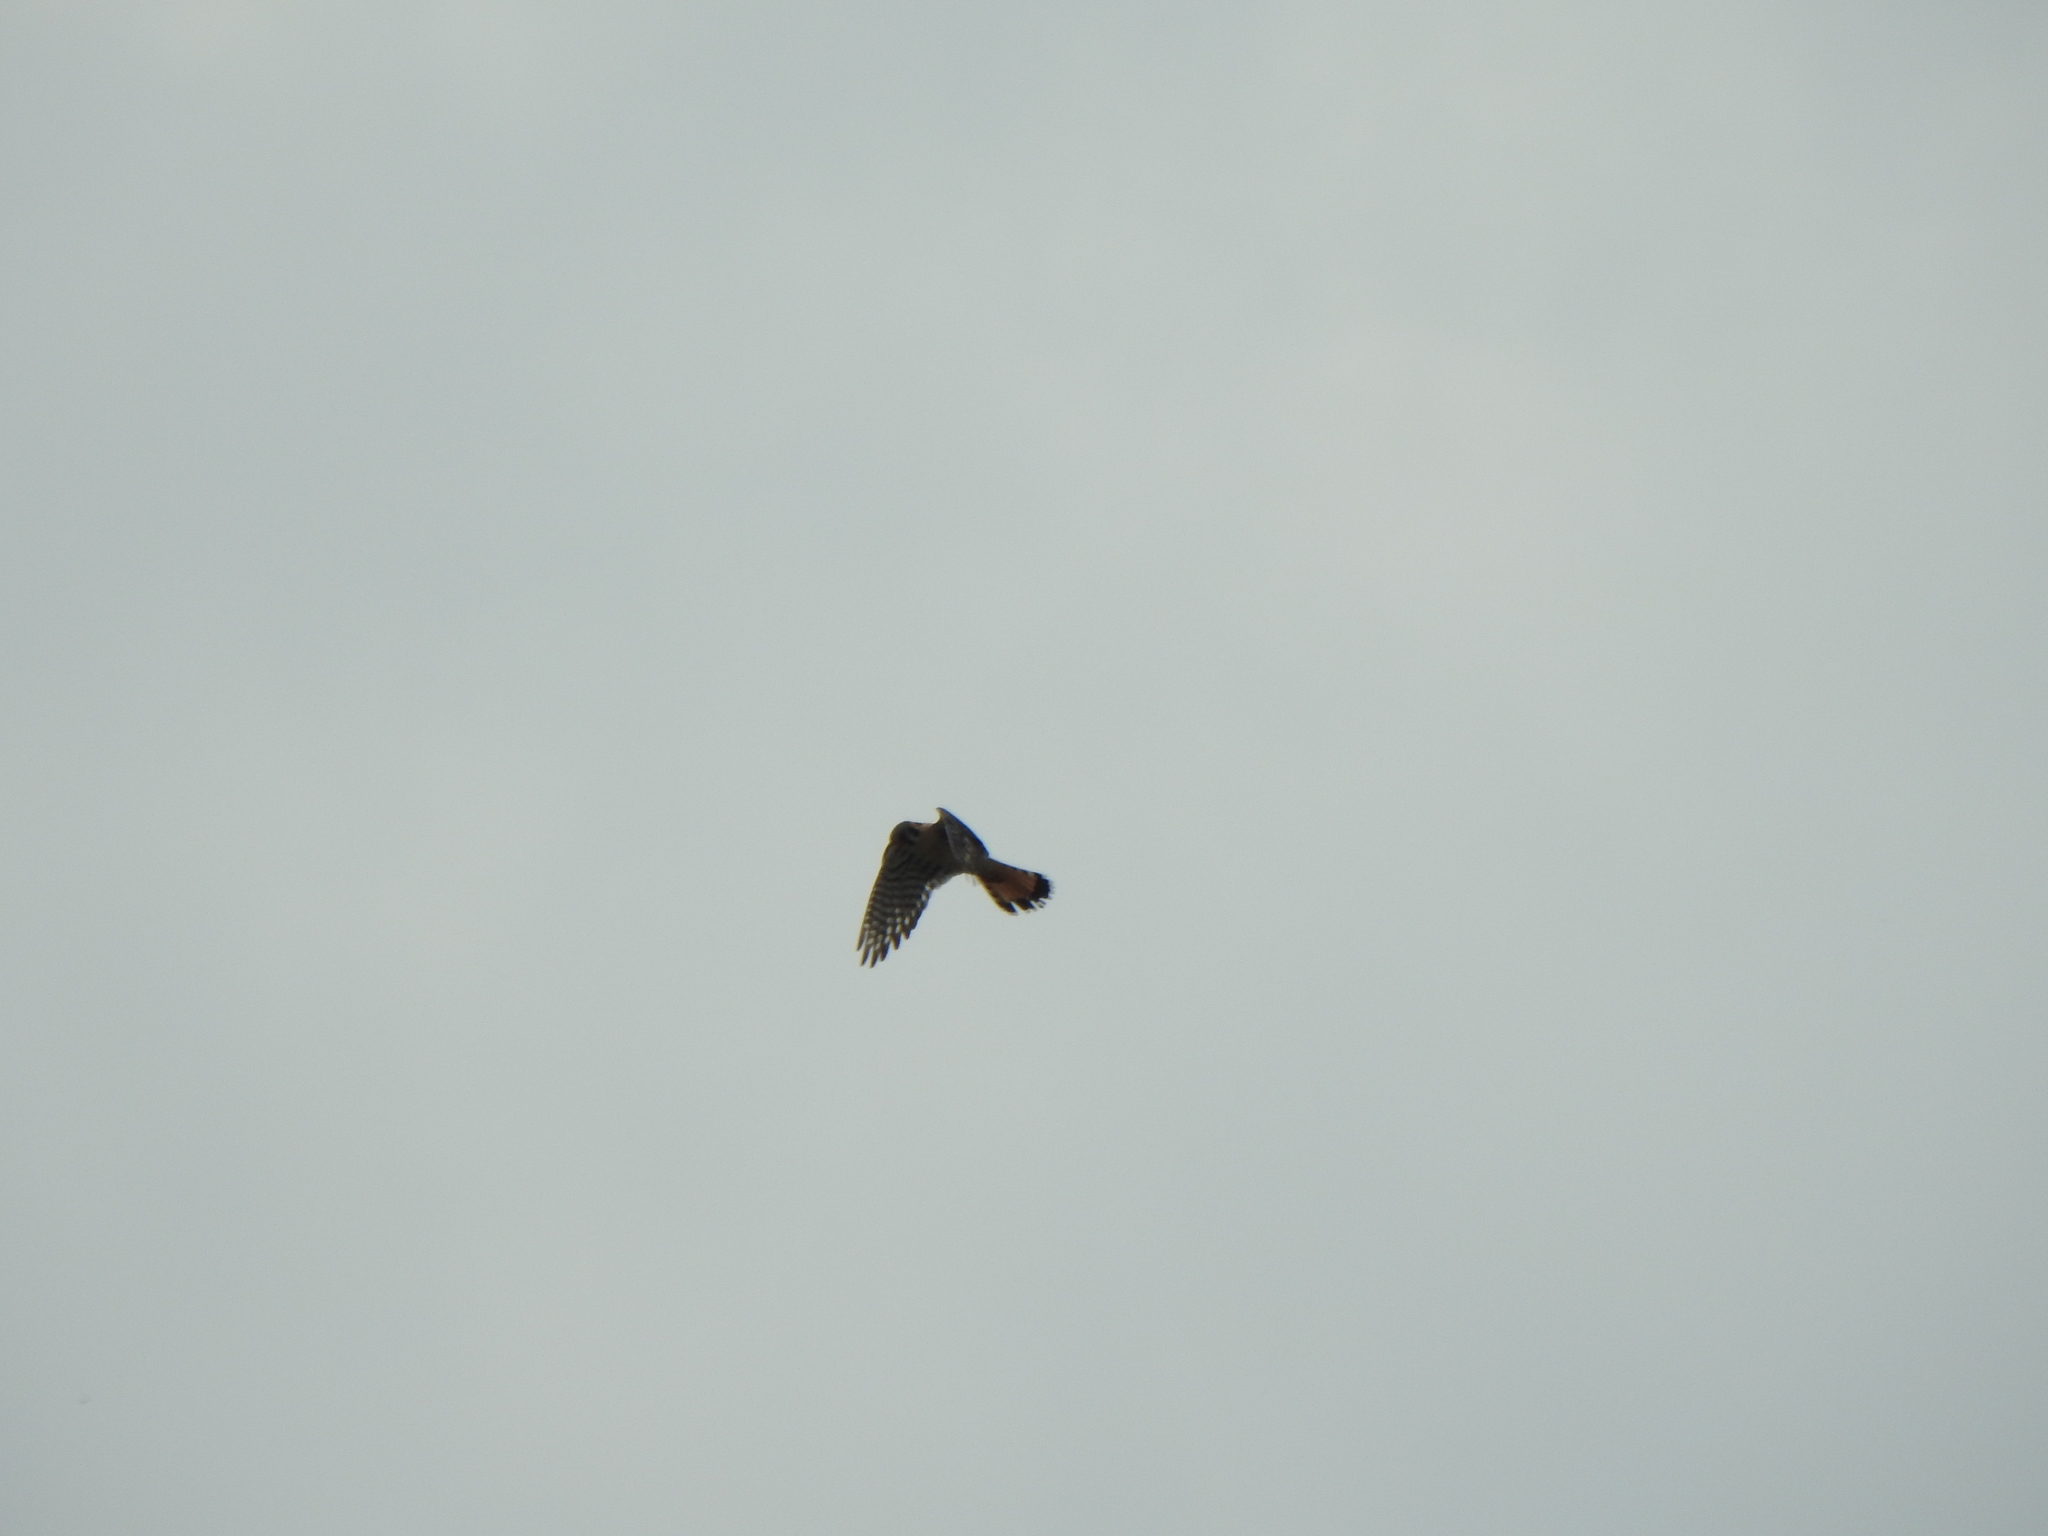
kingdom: Animalia
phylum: Chordata
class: Aves
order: Falconiformes
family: Falconidae
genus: Falco
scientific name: Falco sparverius
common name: American kestrel
